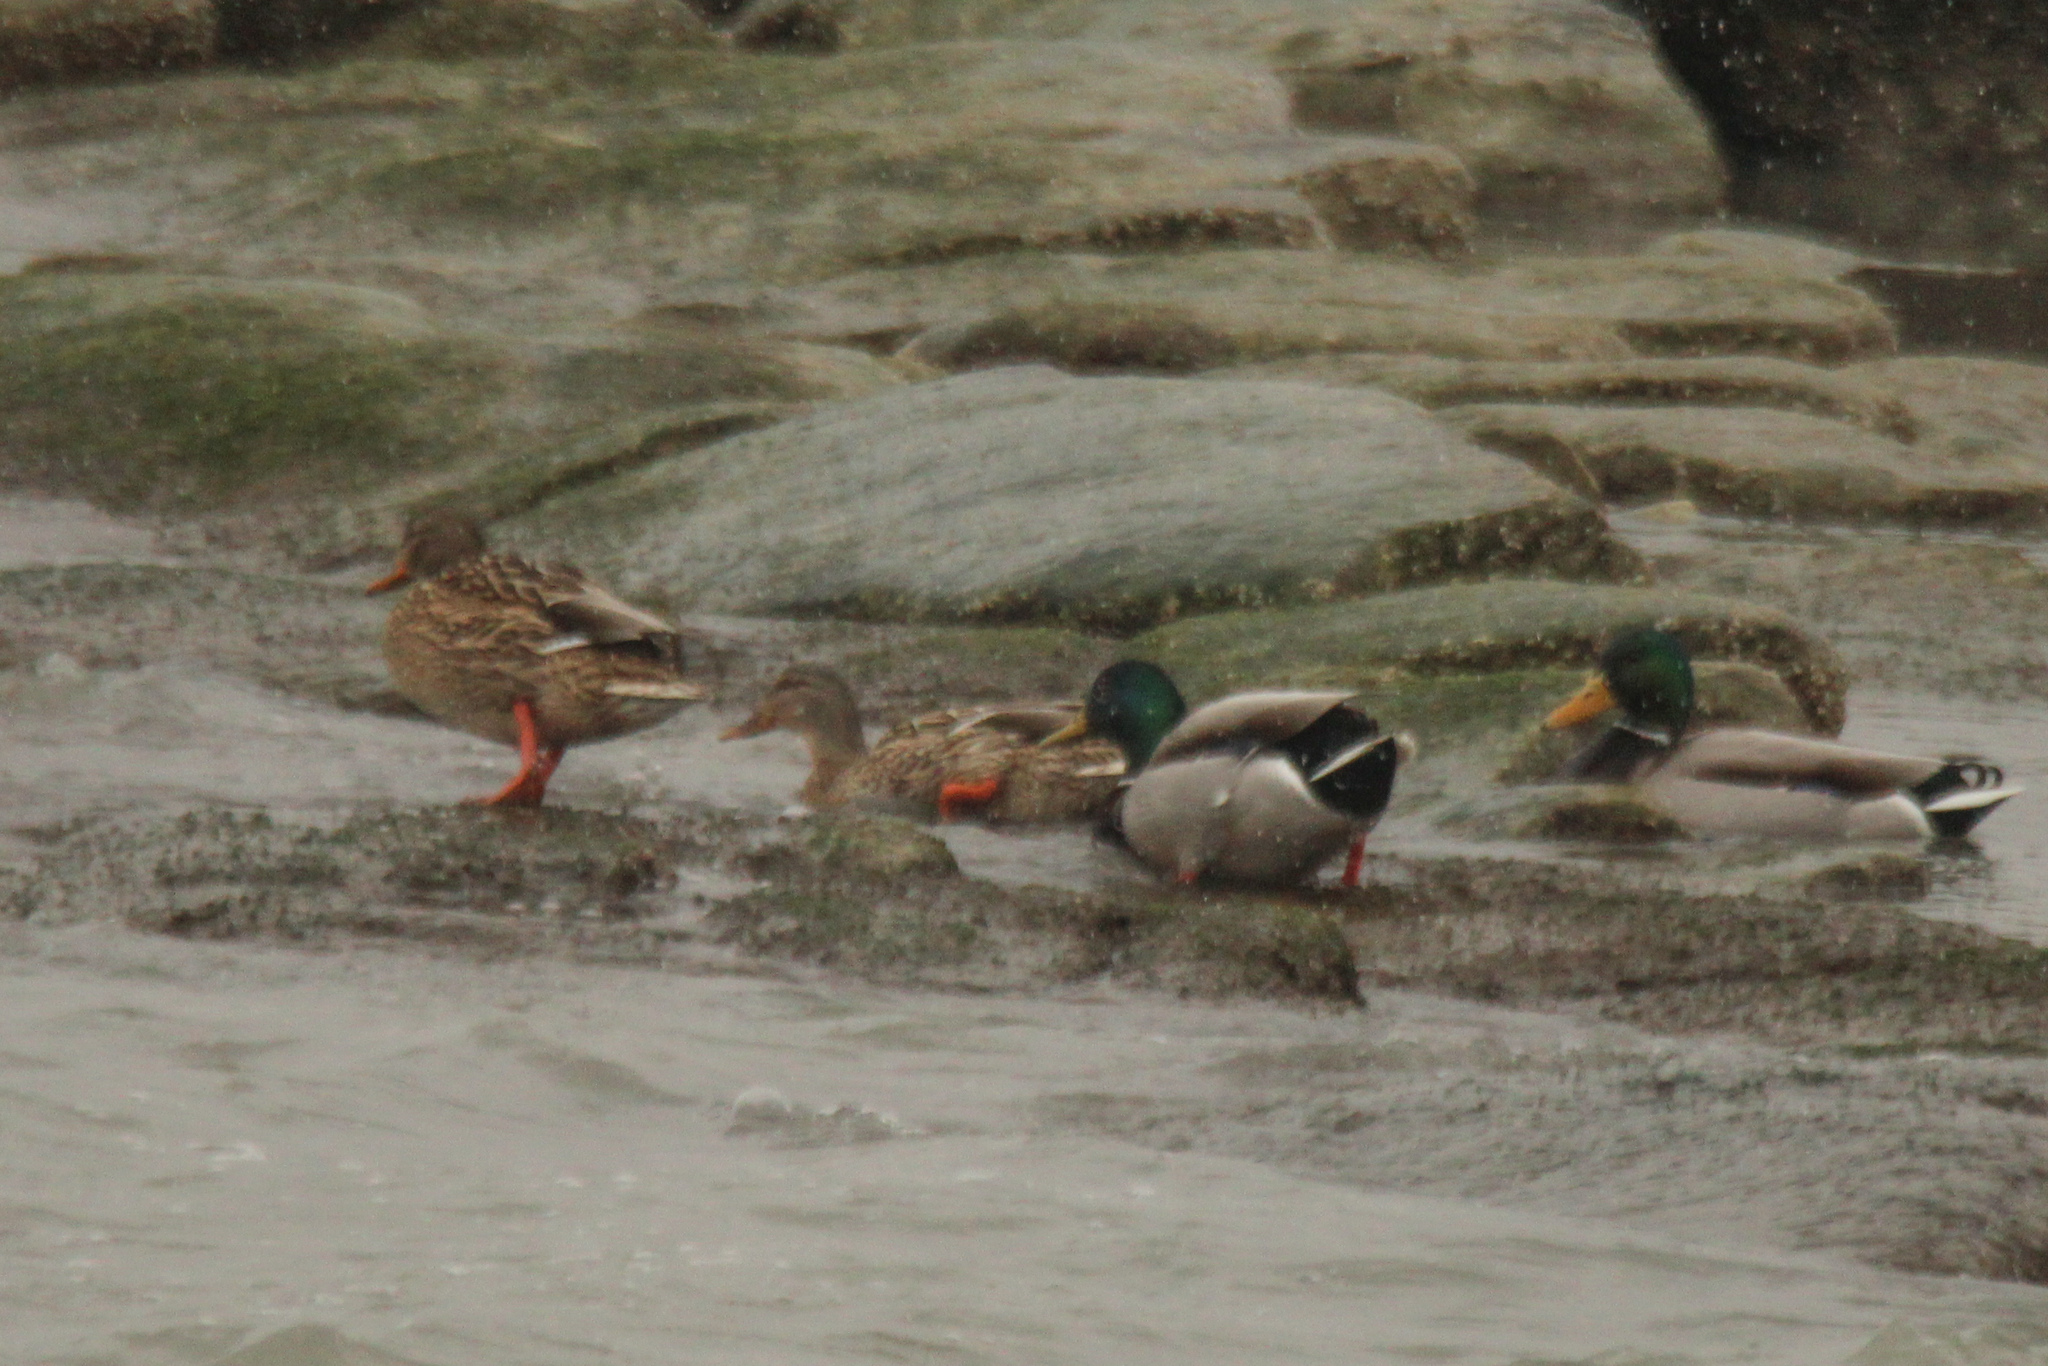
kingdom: Animalia
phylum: Chordata
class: Aves
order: Anseriformes
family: Anatidae
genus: Anas
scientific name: Anas platyrhynchos
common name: Mallard
